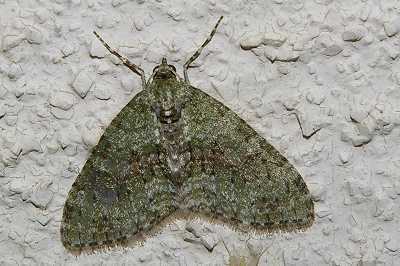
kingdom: Animalia
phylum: Arthropoda
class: Insecta
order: Lepidoptera
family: Geometridae
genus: Trichopterigia
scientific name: Trichopterigia consobrinaria
